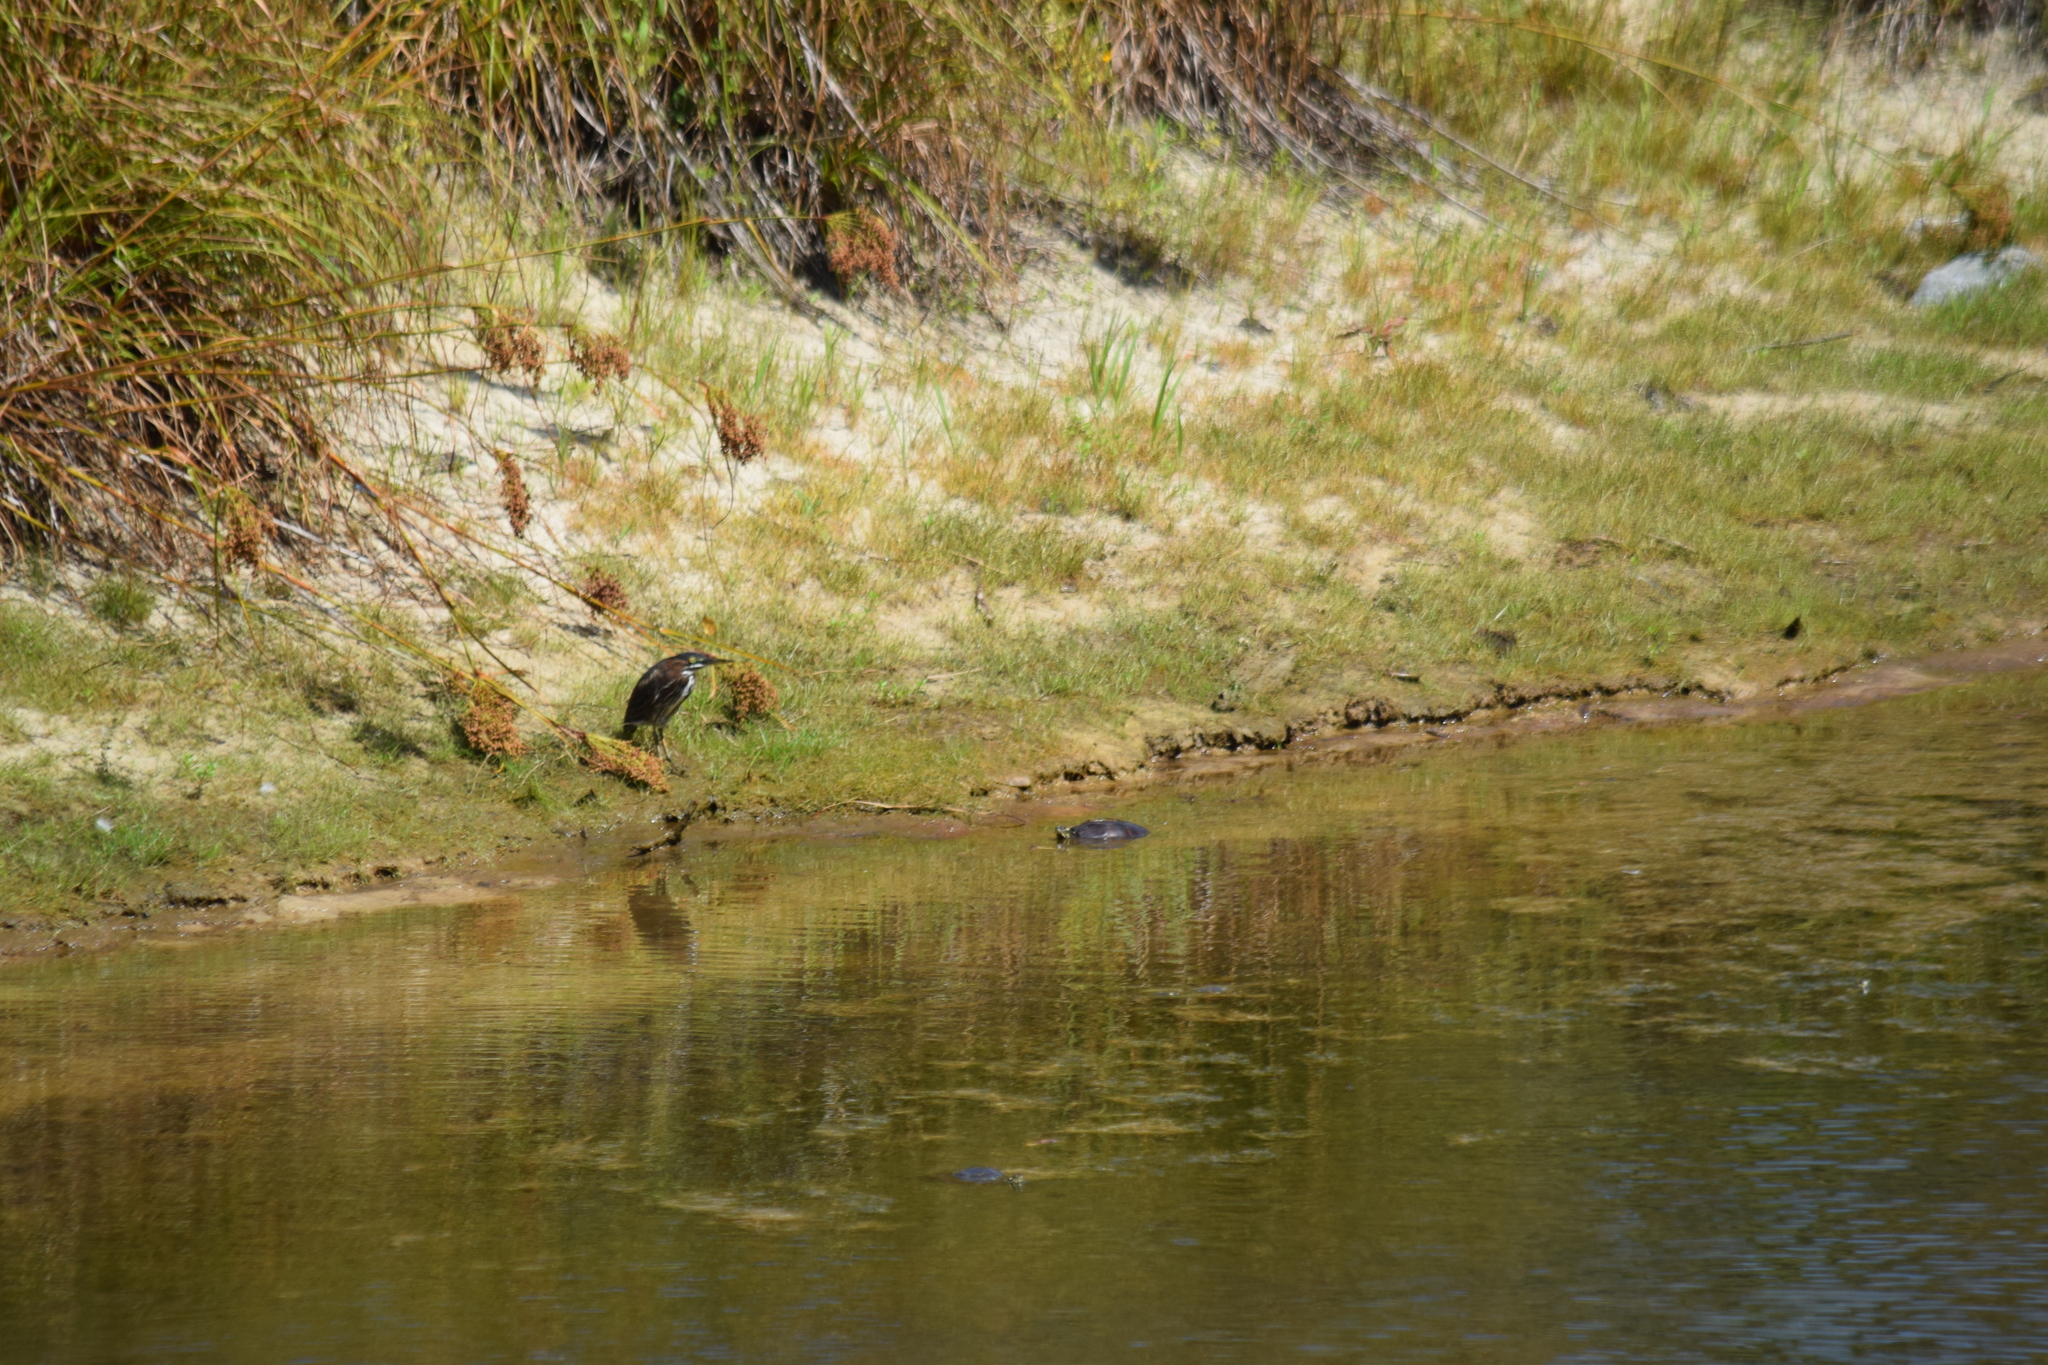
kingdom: Animalia
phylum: Chordata
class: Testudines
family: Emydidae
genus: Chrysemys
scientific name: Chrysemys picta
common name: Painted turtle
